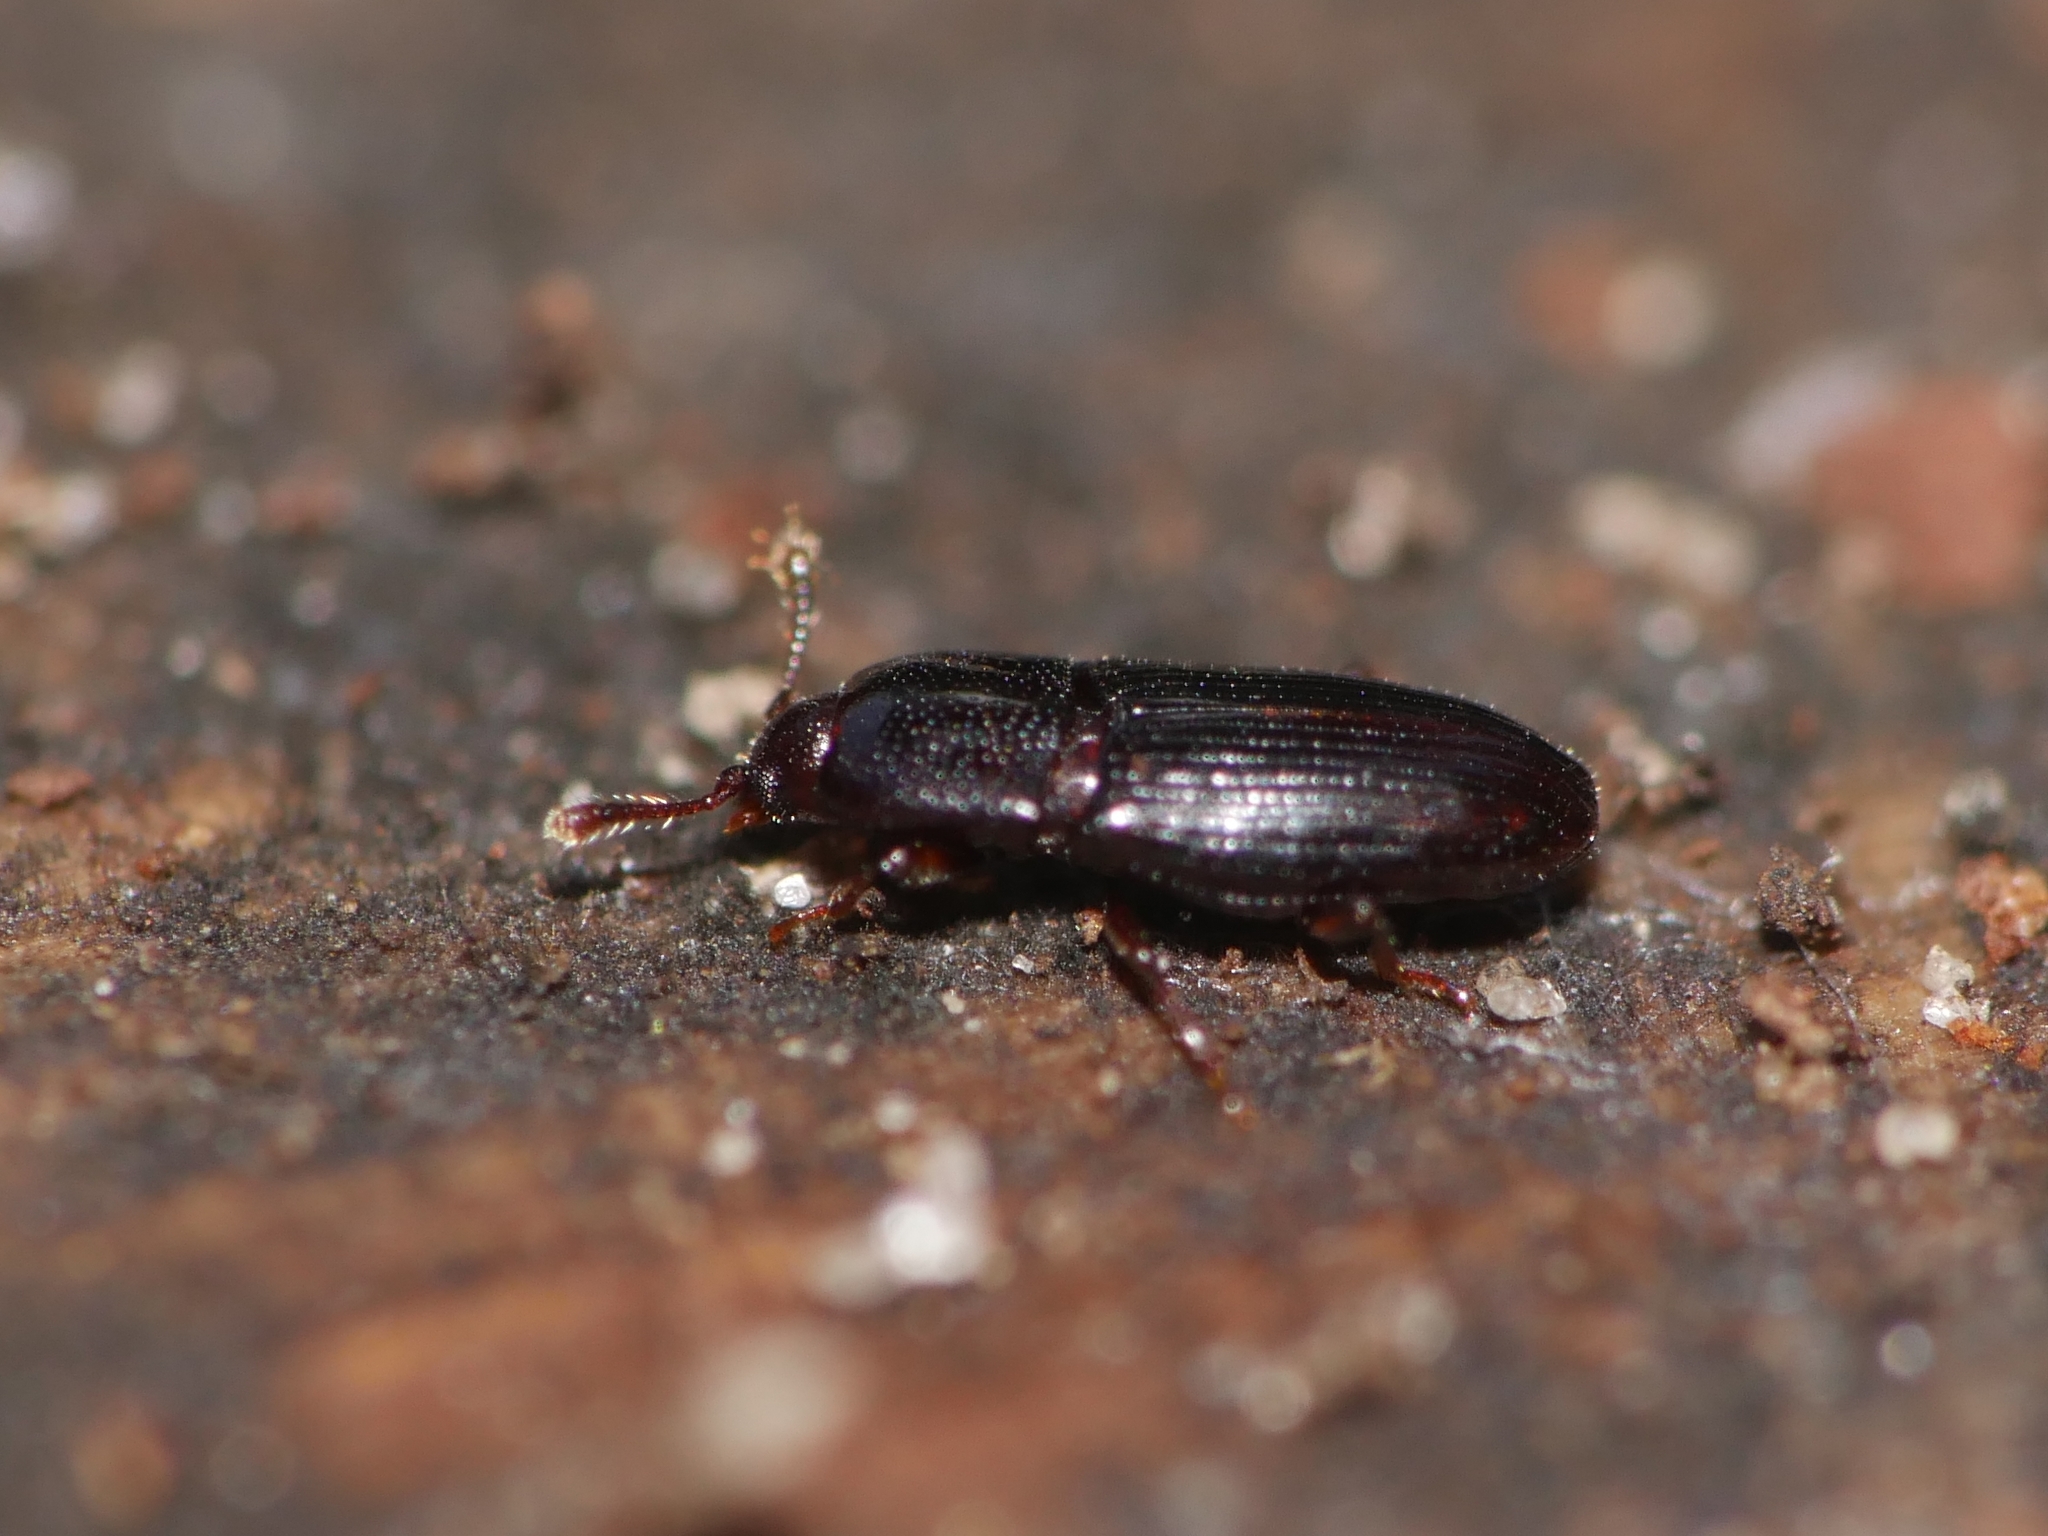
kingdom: Animalia
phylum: Arthropoda
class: Insecta
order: Coleoptera
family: Cerylonidae
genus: Cerylon
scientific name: Cerylon histeroides
